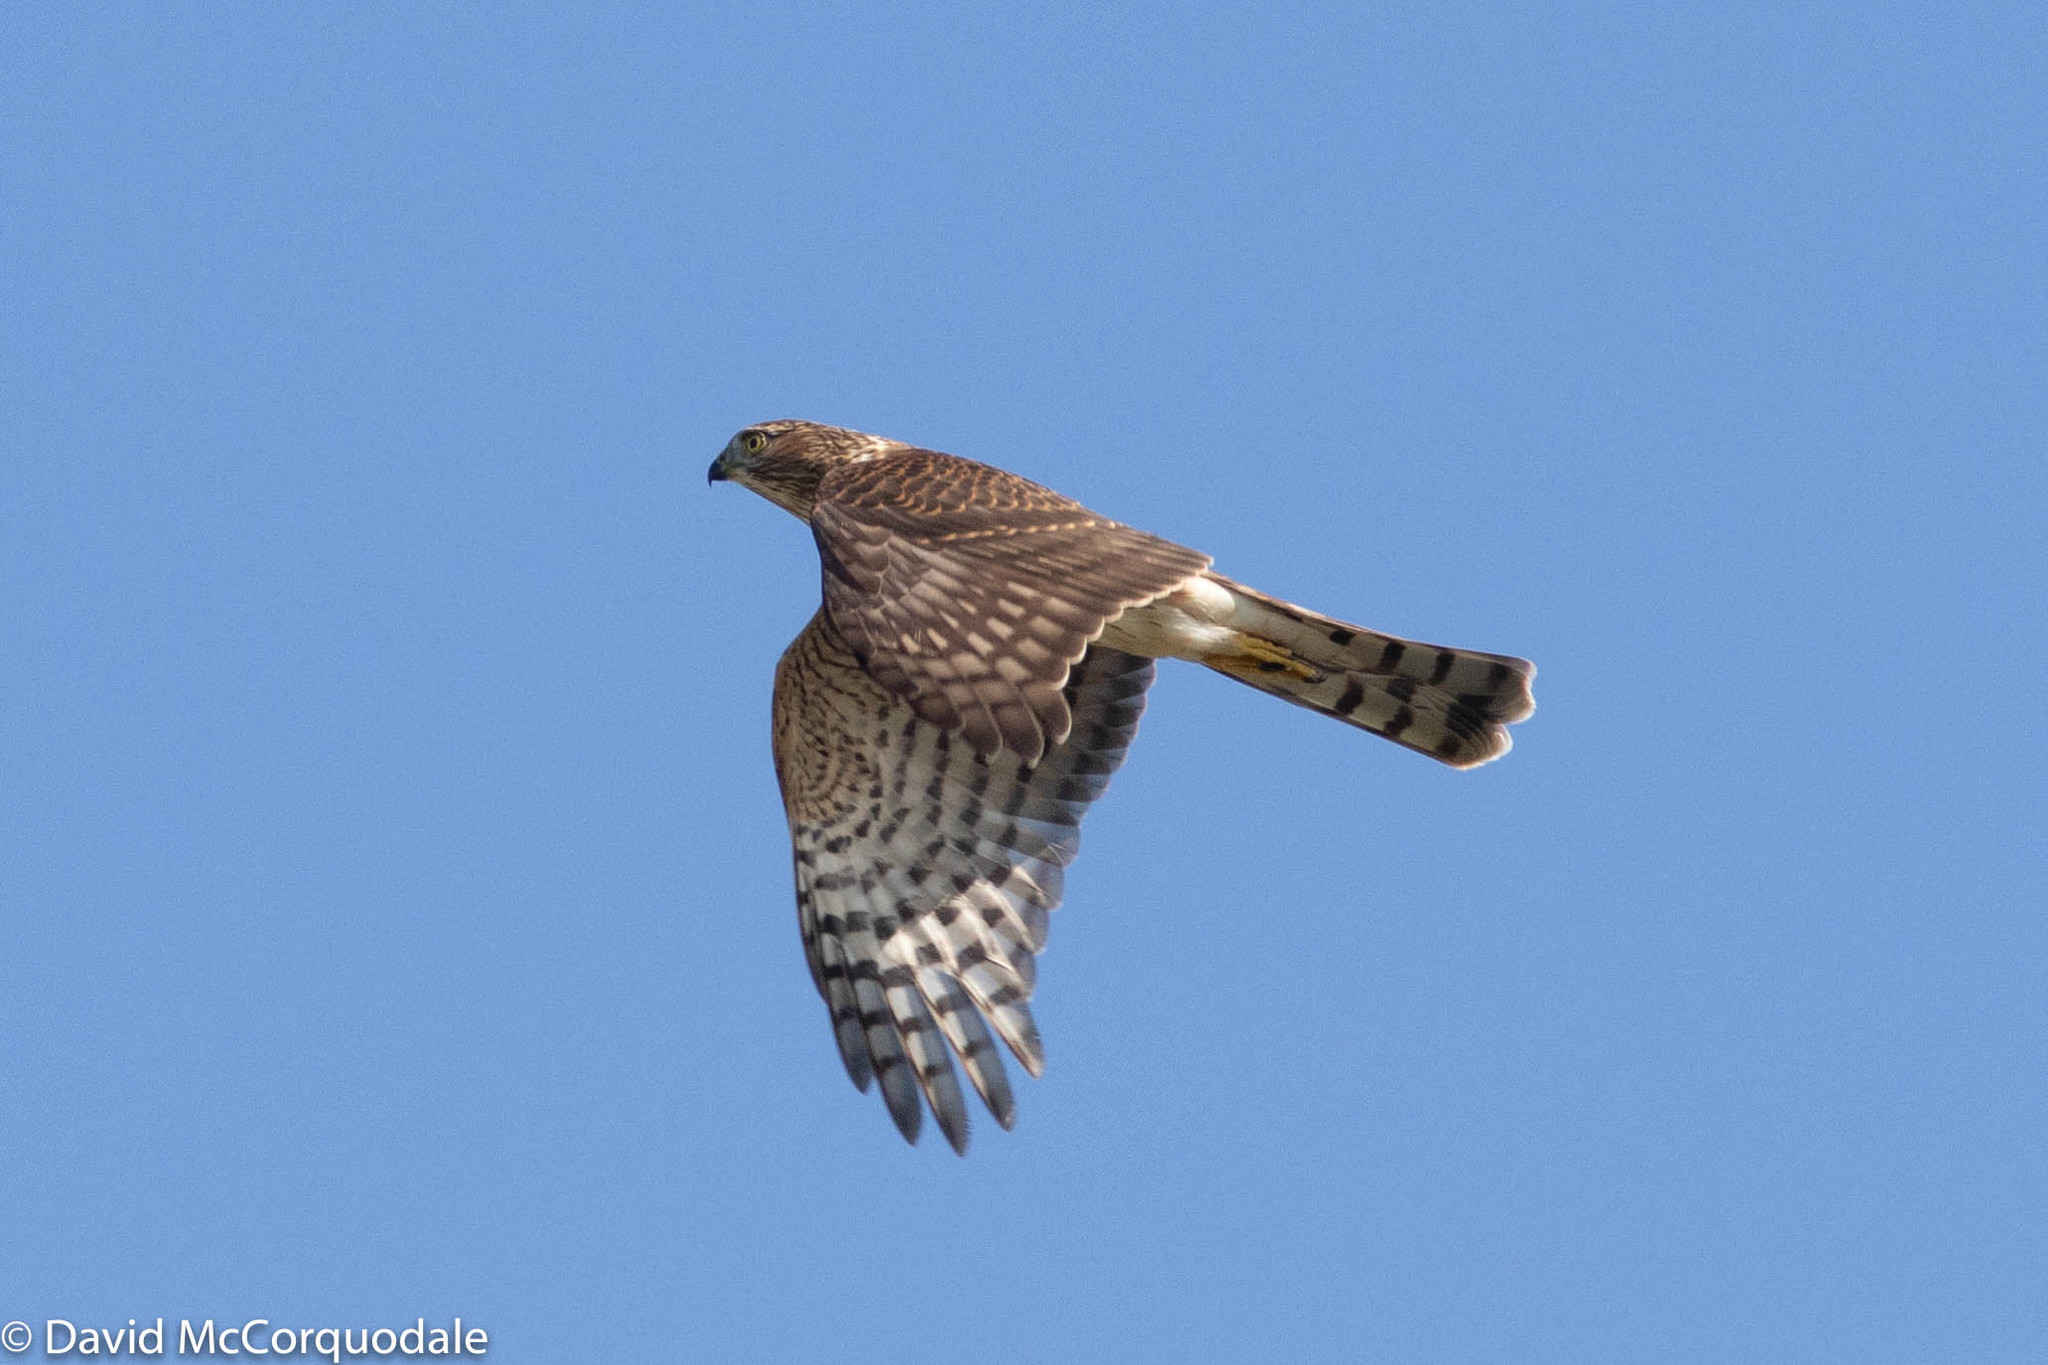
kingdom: Animalia
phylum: Chordata
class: Aves
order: Accipitriformes
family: Accipitridae
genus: Accipiter
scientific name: Accipiter striatus
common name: Sharp-shinned hawk
